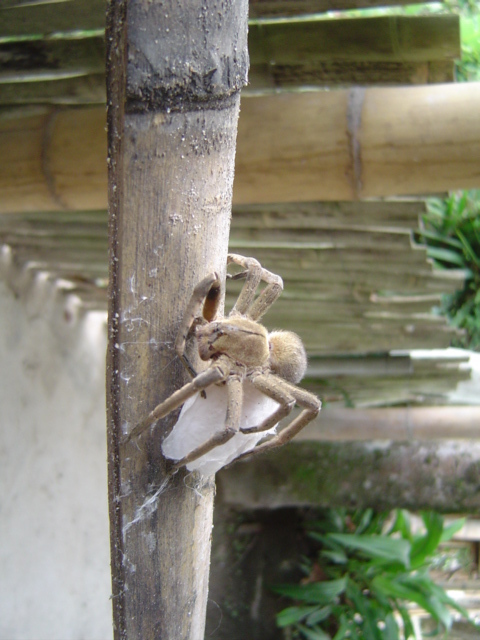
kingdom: Animalia
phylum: Arthropoda
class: Arachnida
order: Araneae
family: Ctenidae
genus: Phoneutria
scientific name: Phoneutria depilata
